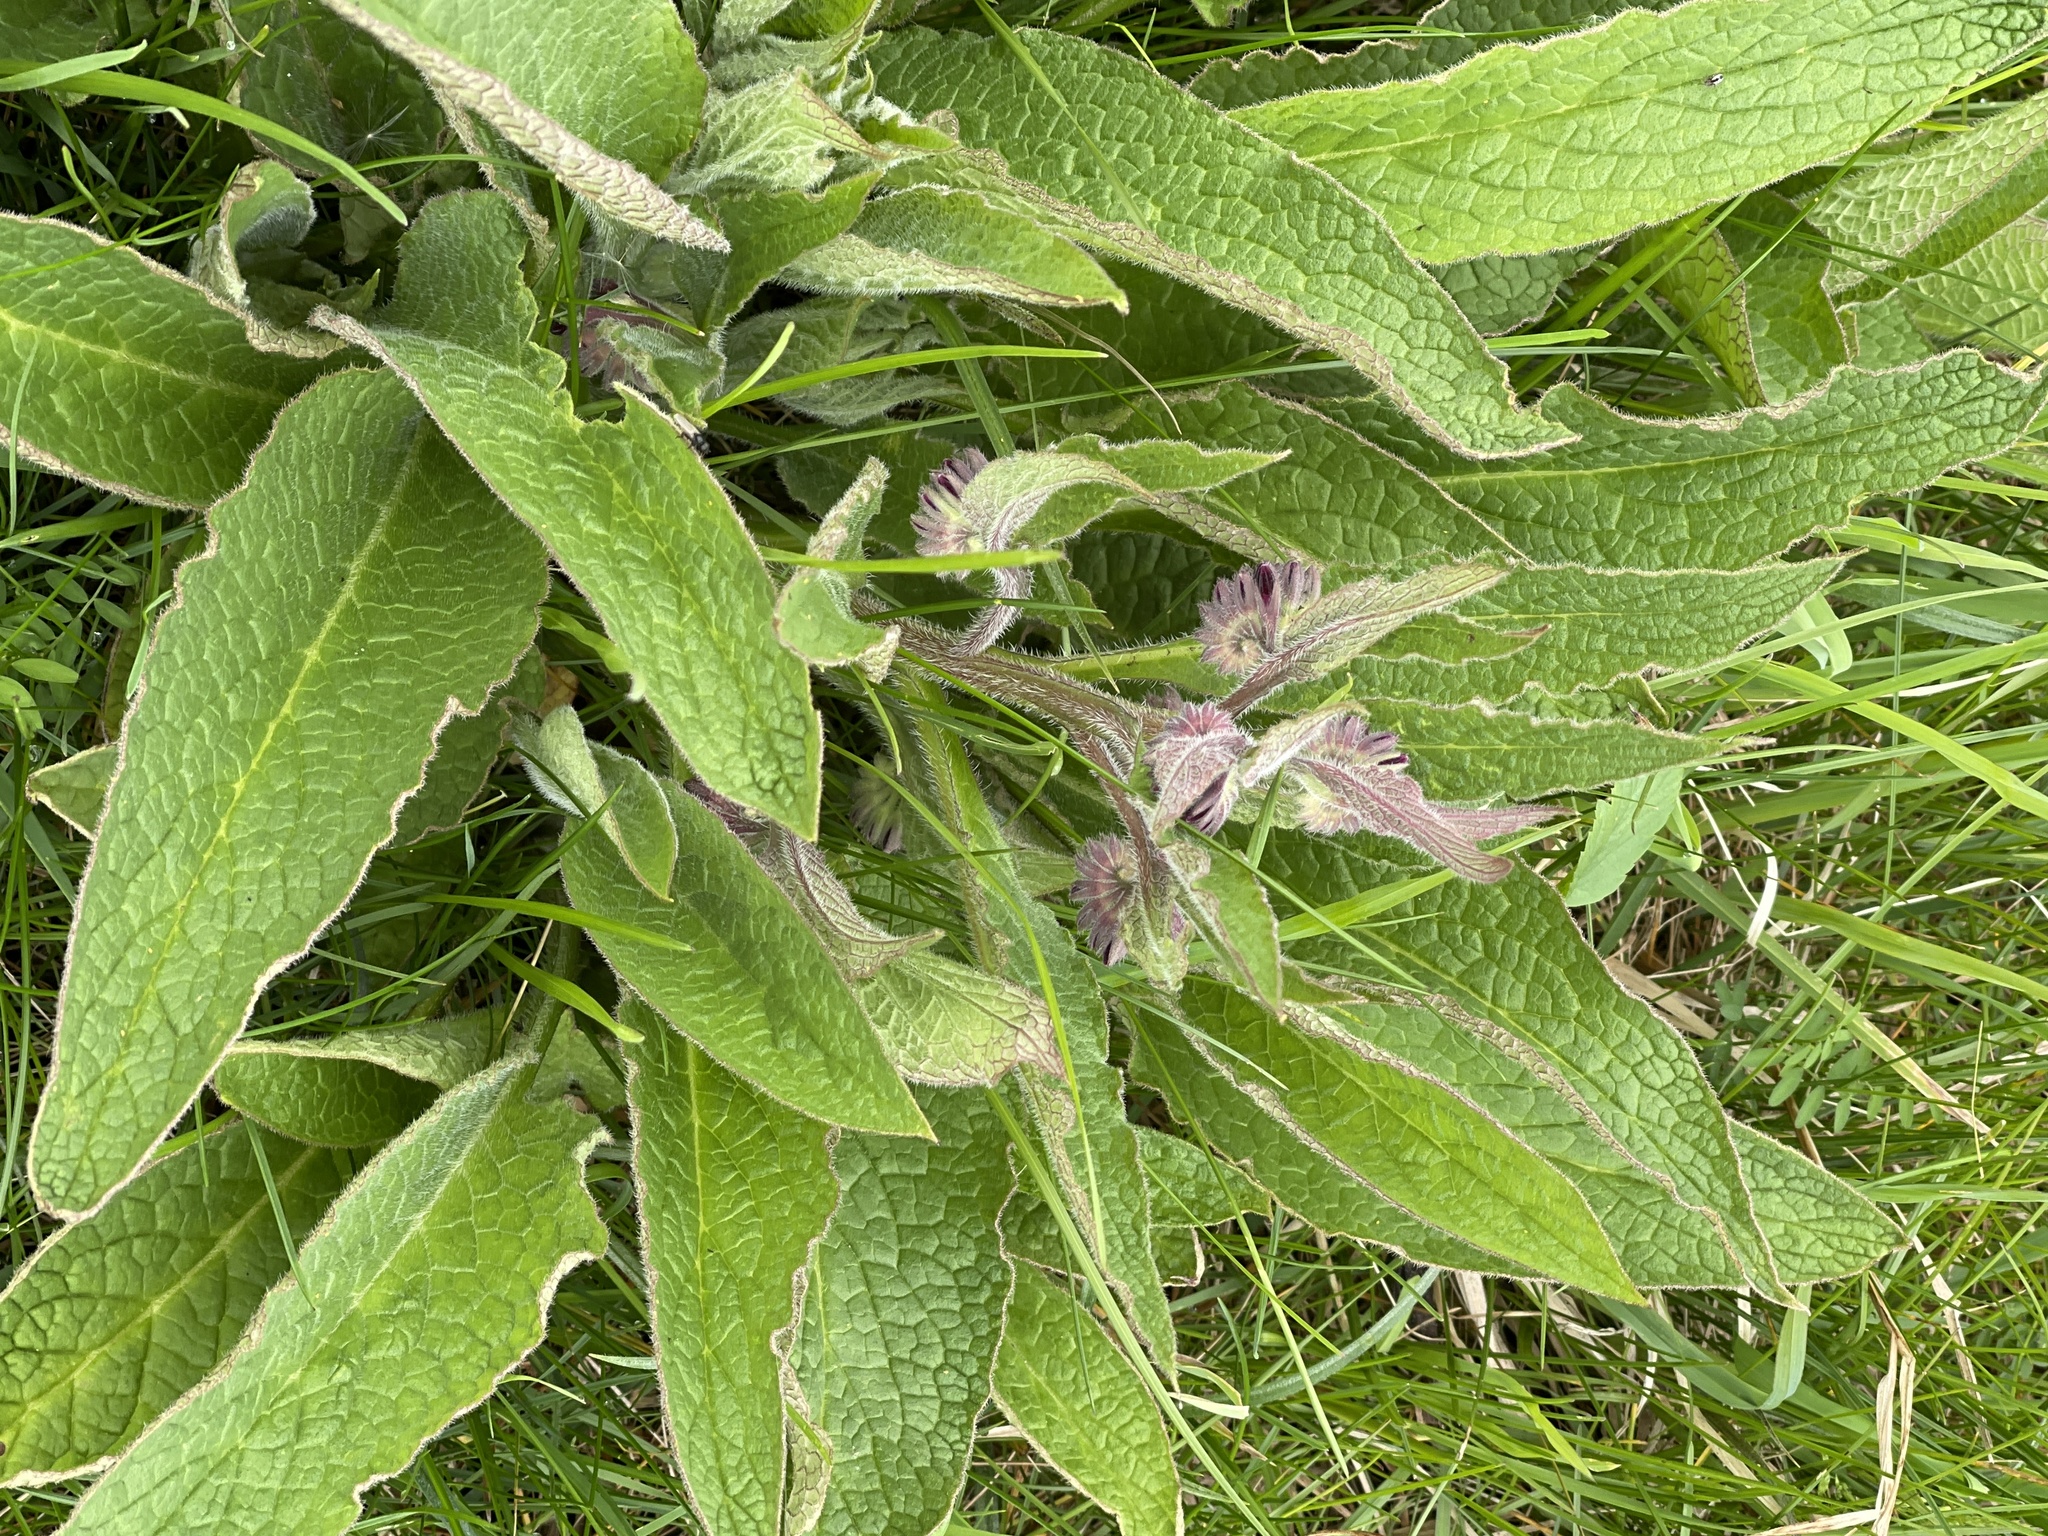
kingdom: Plantae
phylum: Tracheophyta
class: Magnoliopsida
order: Boraginales
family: Boraginaceae
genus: Symphytum
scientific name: Symphytum uplandicum
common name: Russian comfrey
